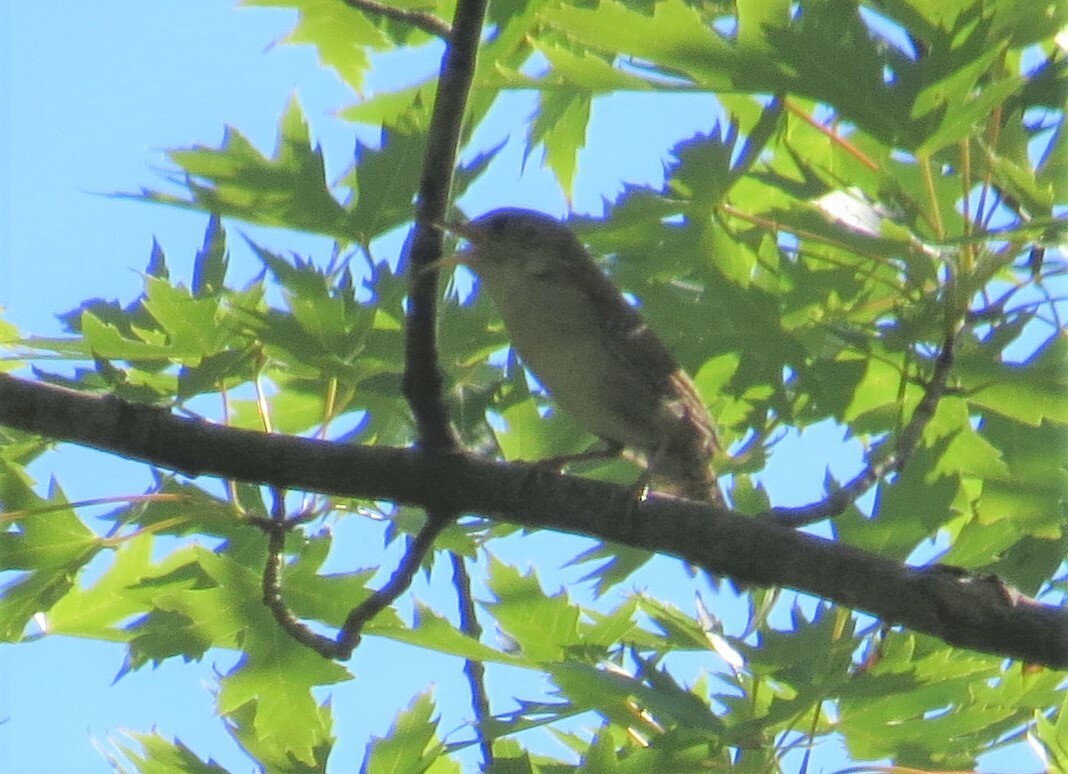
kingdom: Animalia
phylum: Chordata
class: Aves
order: Passeriformes
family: Troglodytidae
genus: Troglodytes
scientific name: Troglodytes aedon
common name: House wren
